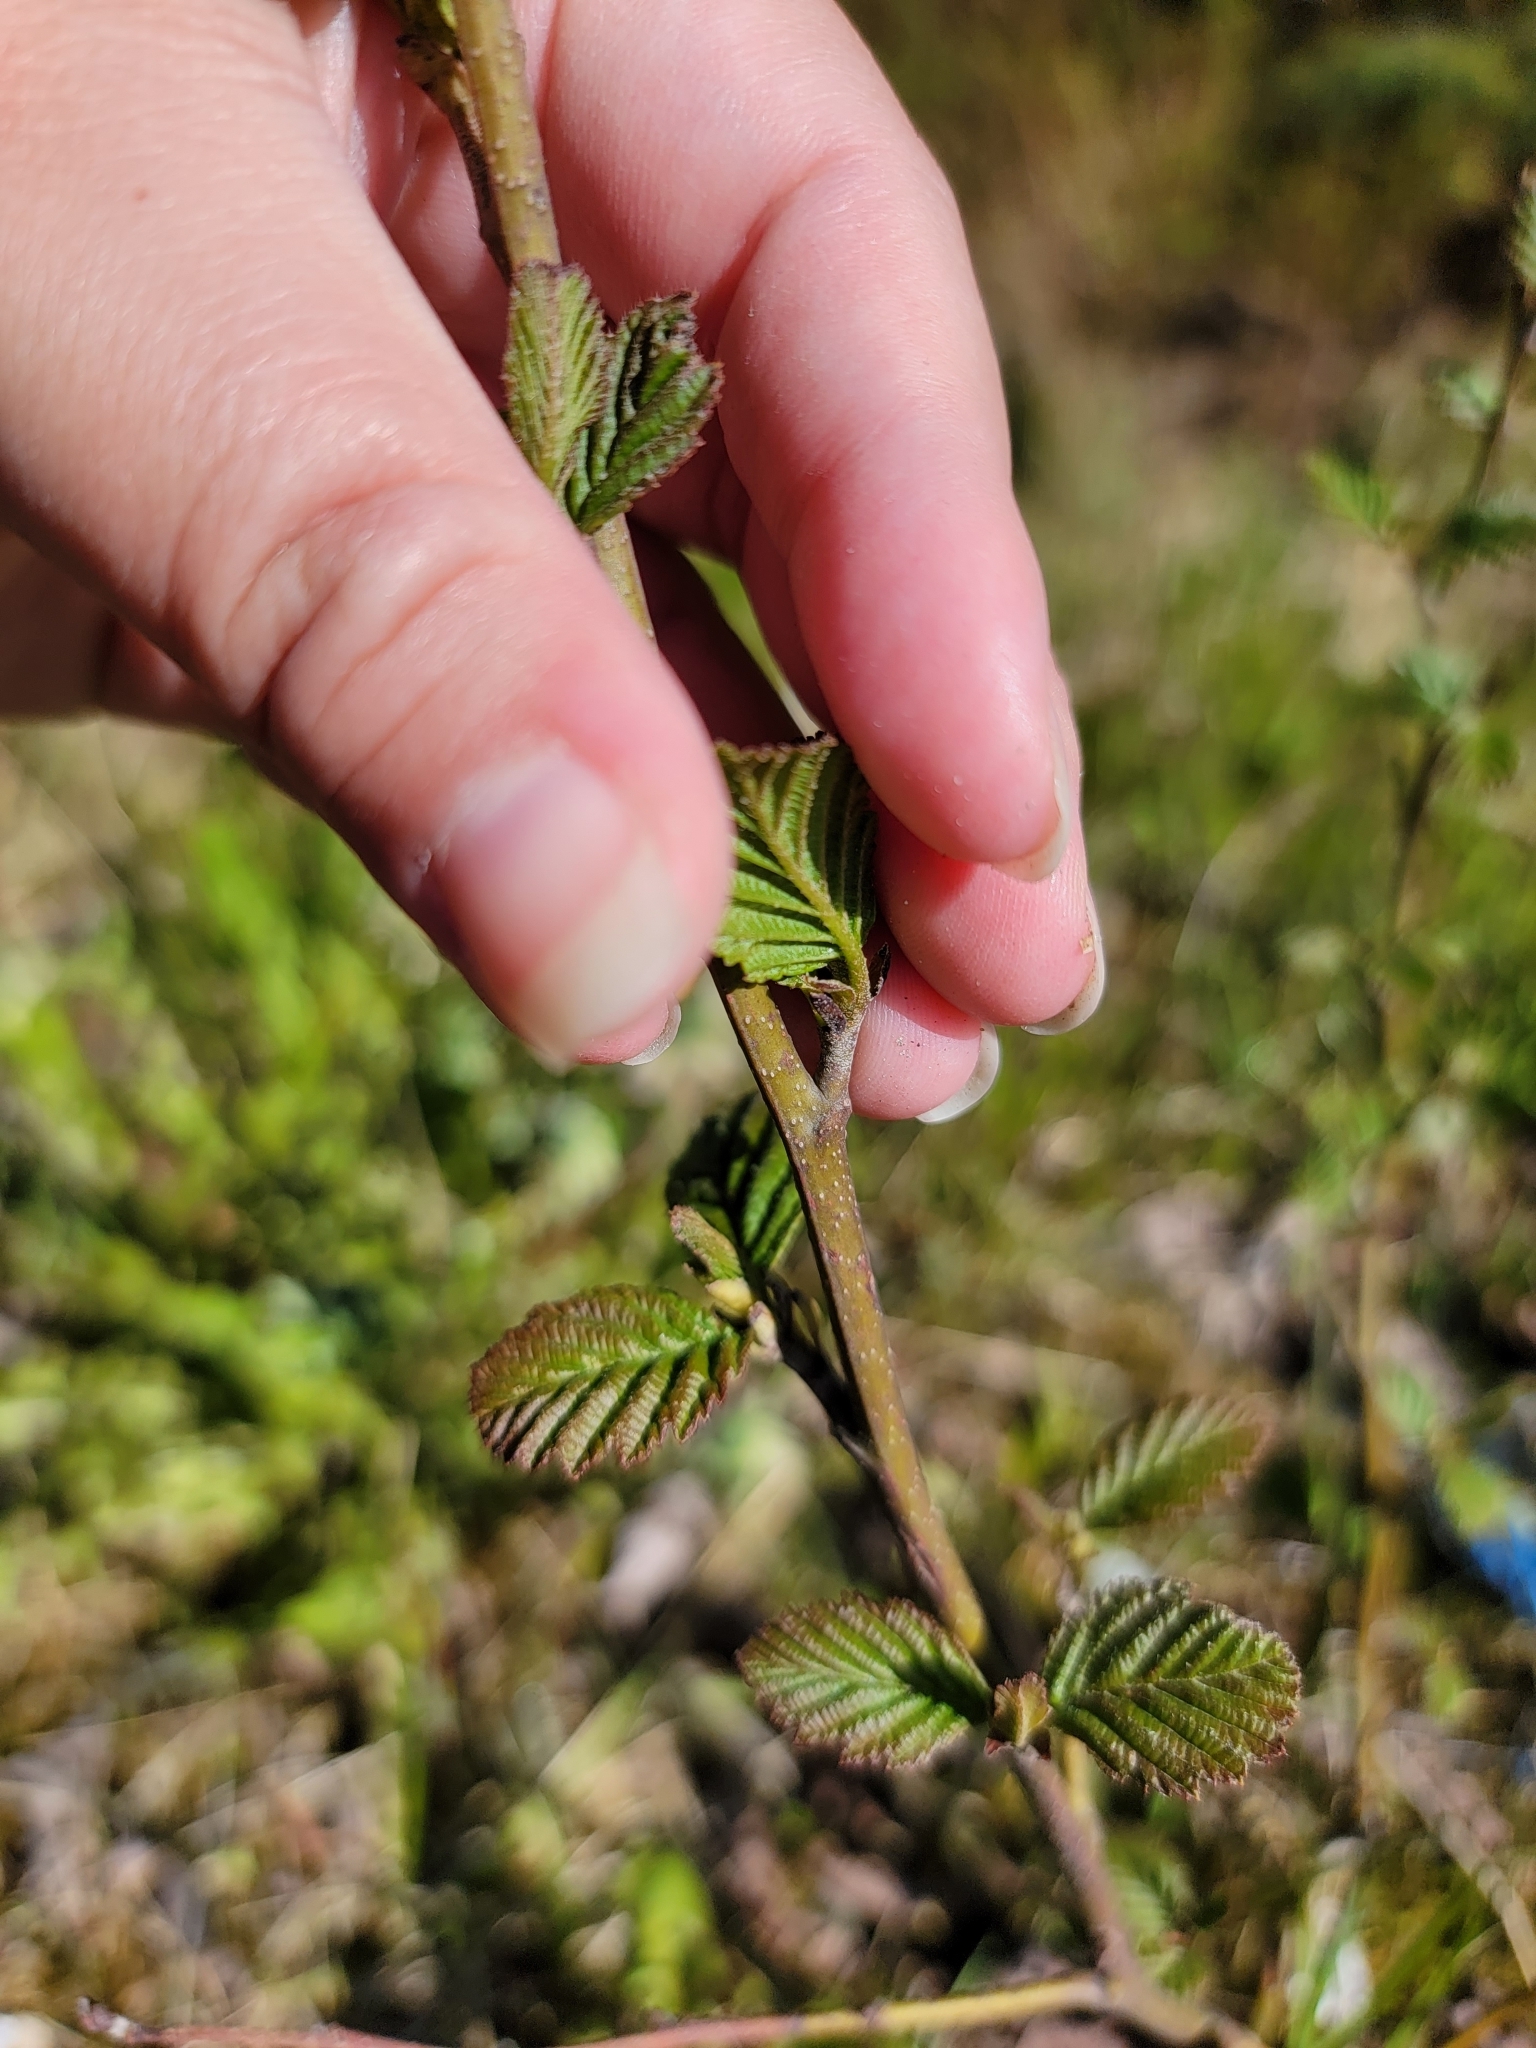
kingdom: Plantae
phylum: Tracheophyta
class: Magnoliopsida
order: Fagales
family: Betulaceae
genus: Alnus
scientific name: Alnus rubra
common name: Red alder
